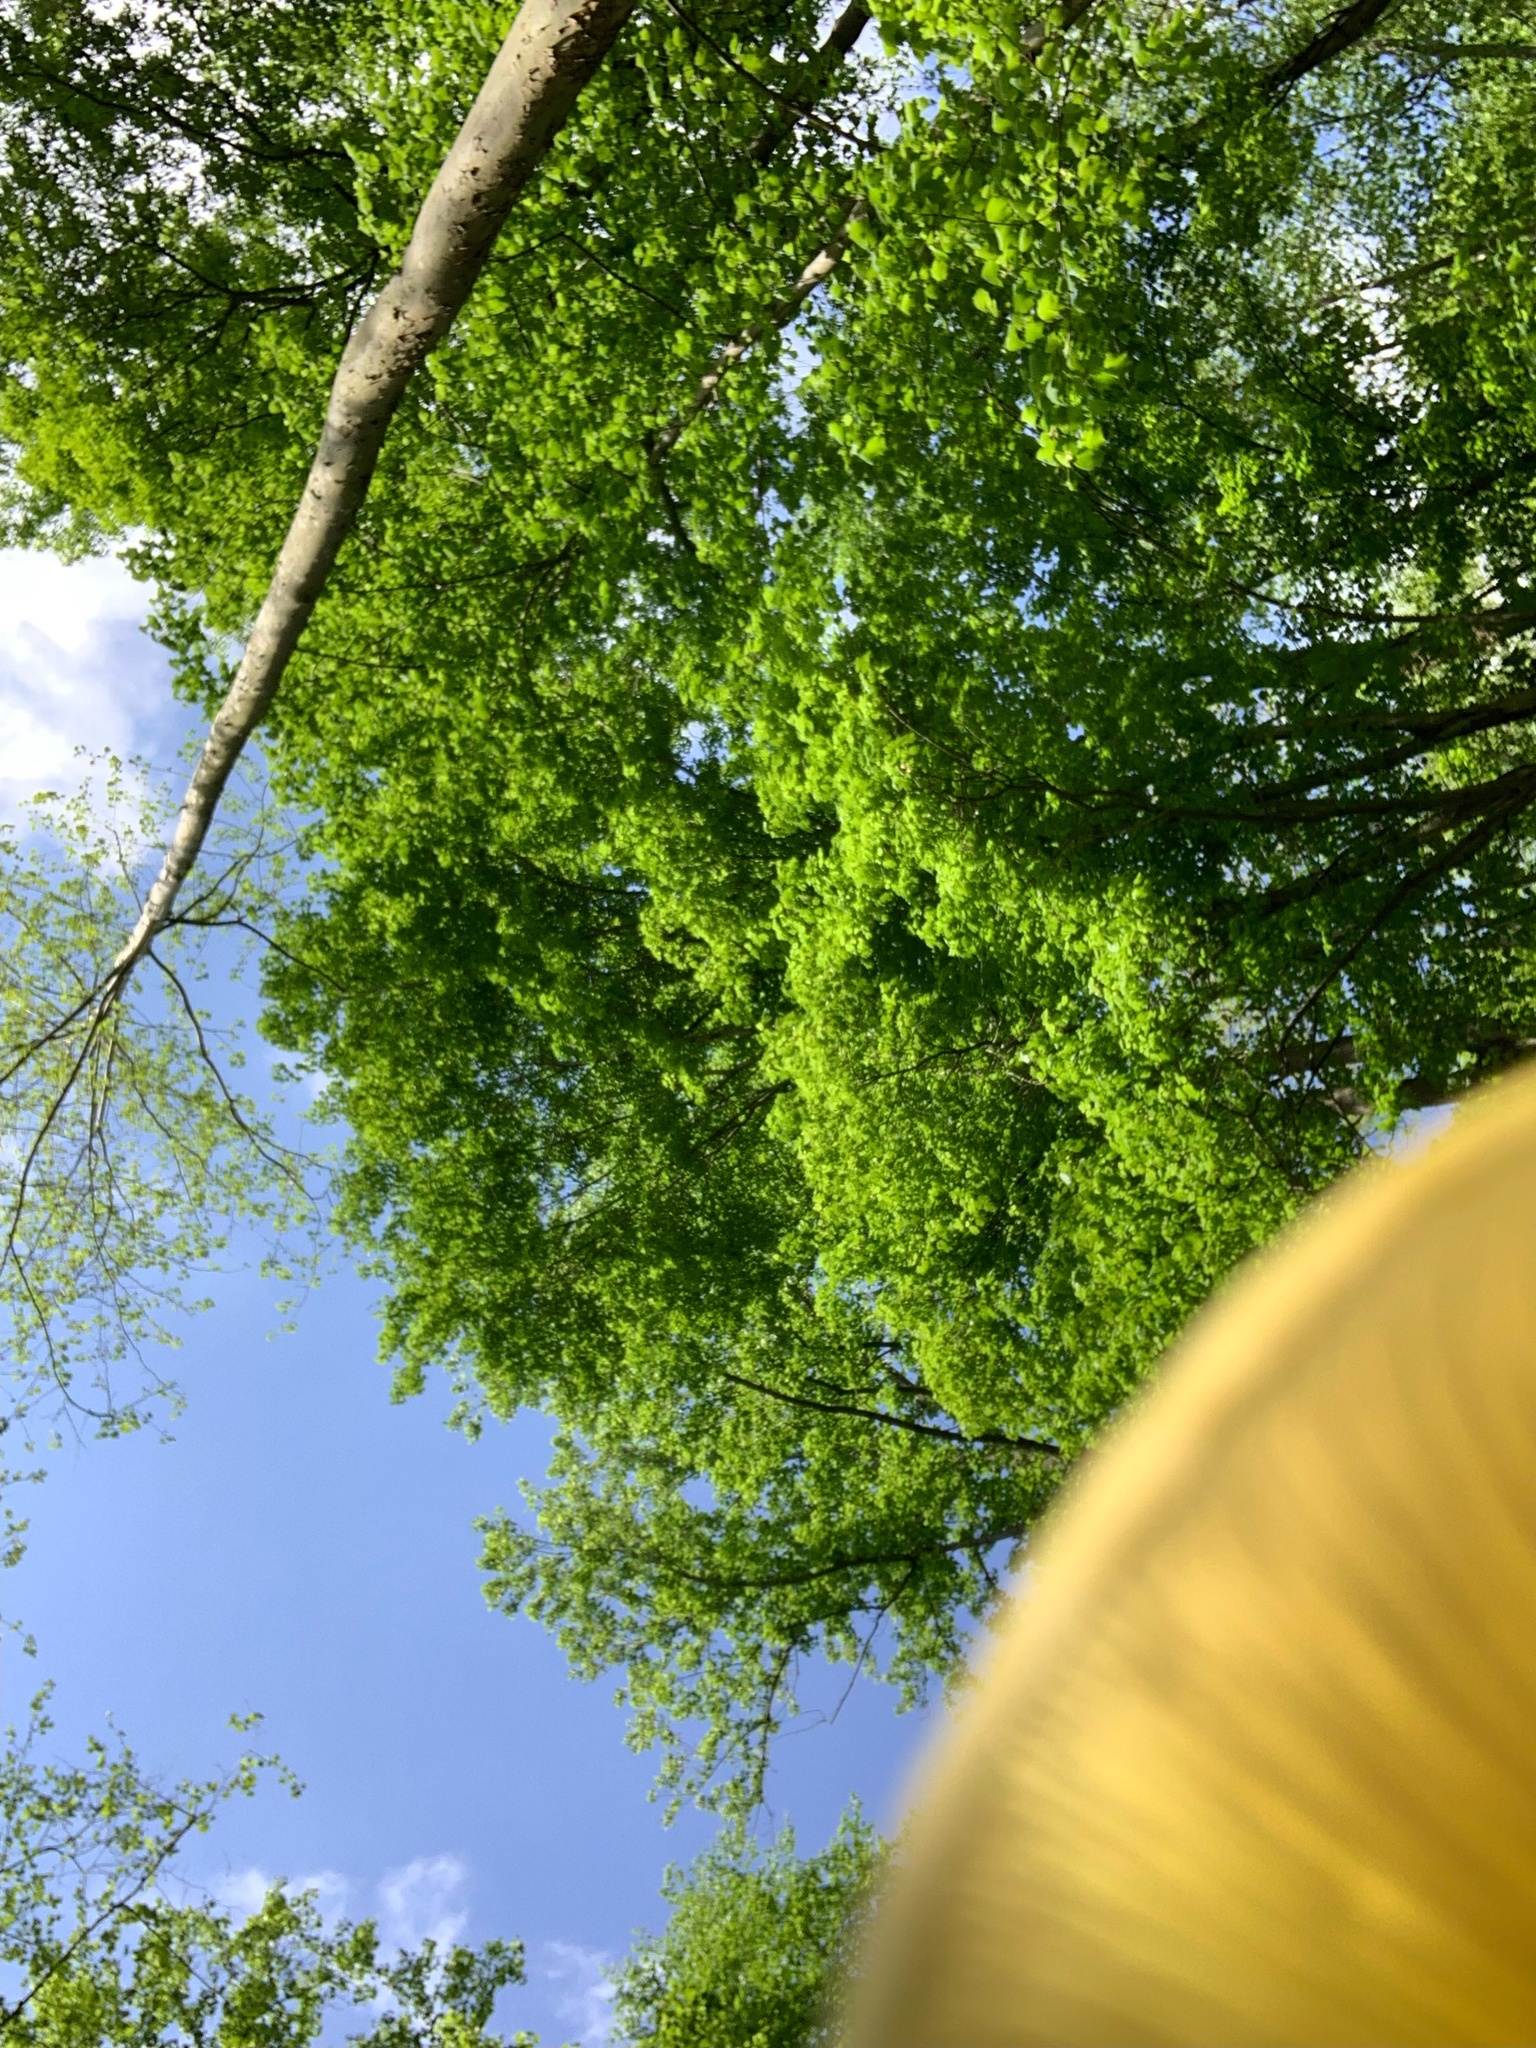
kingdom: Fungi
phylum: Basidiomycota
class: Agaricomycetes
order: Agaricales
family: Pleurotaceae
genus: Pleurotus
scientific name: Pleurotus citrinopileatus
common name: Golden oyster mushroom
